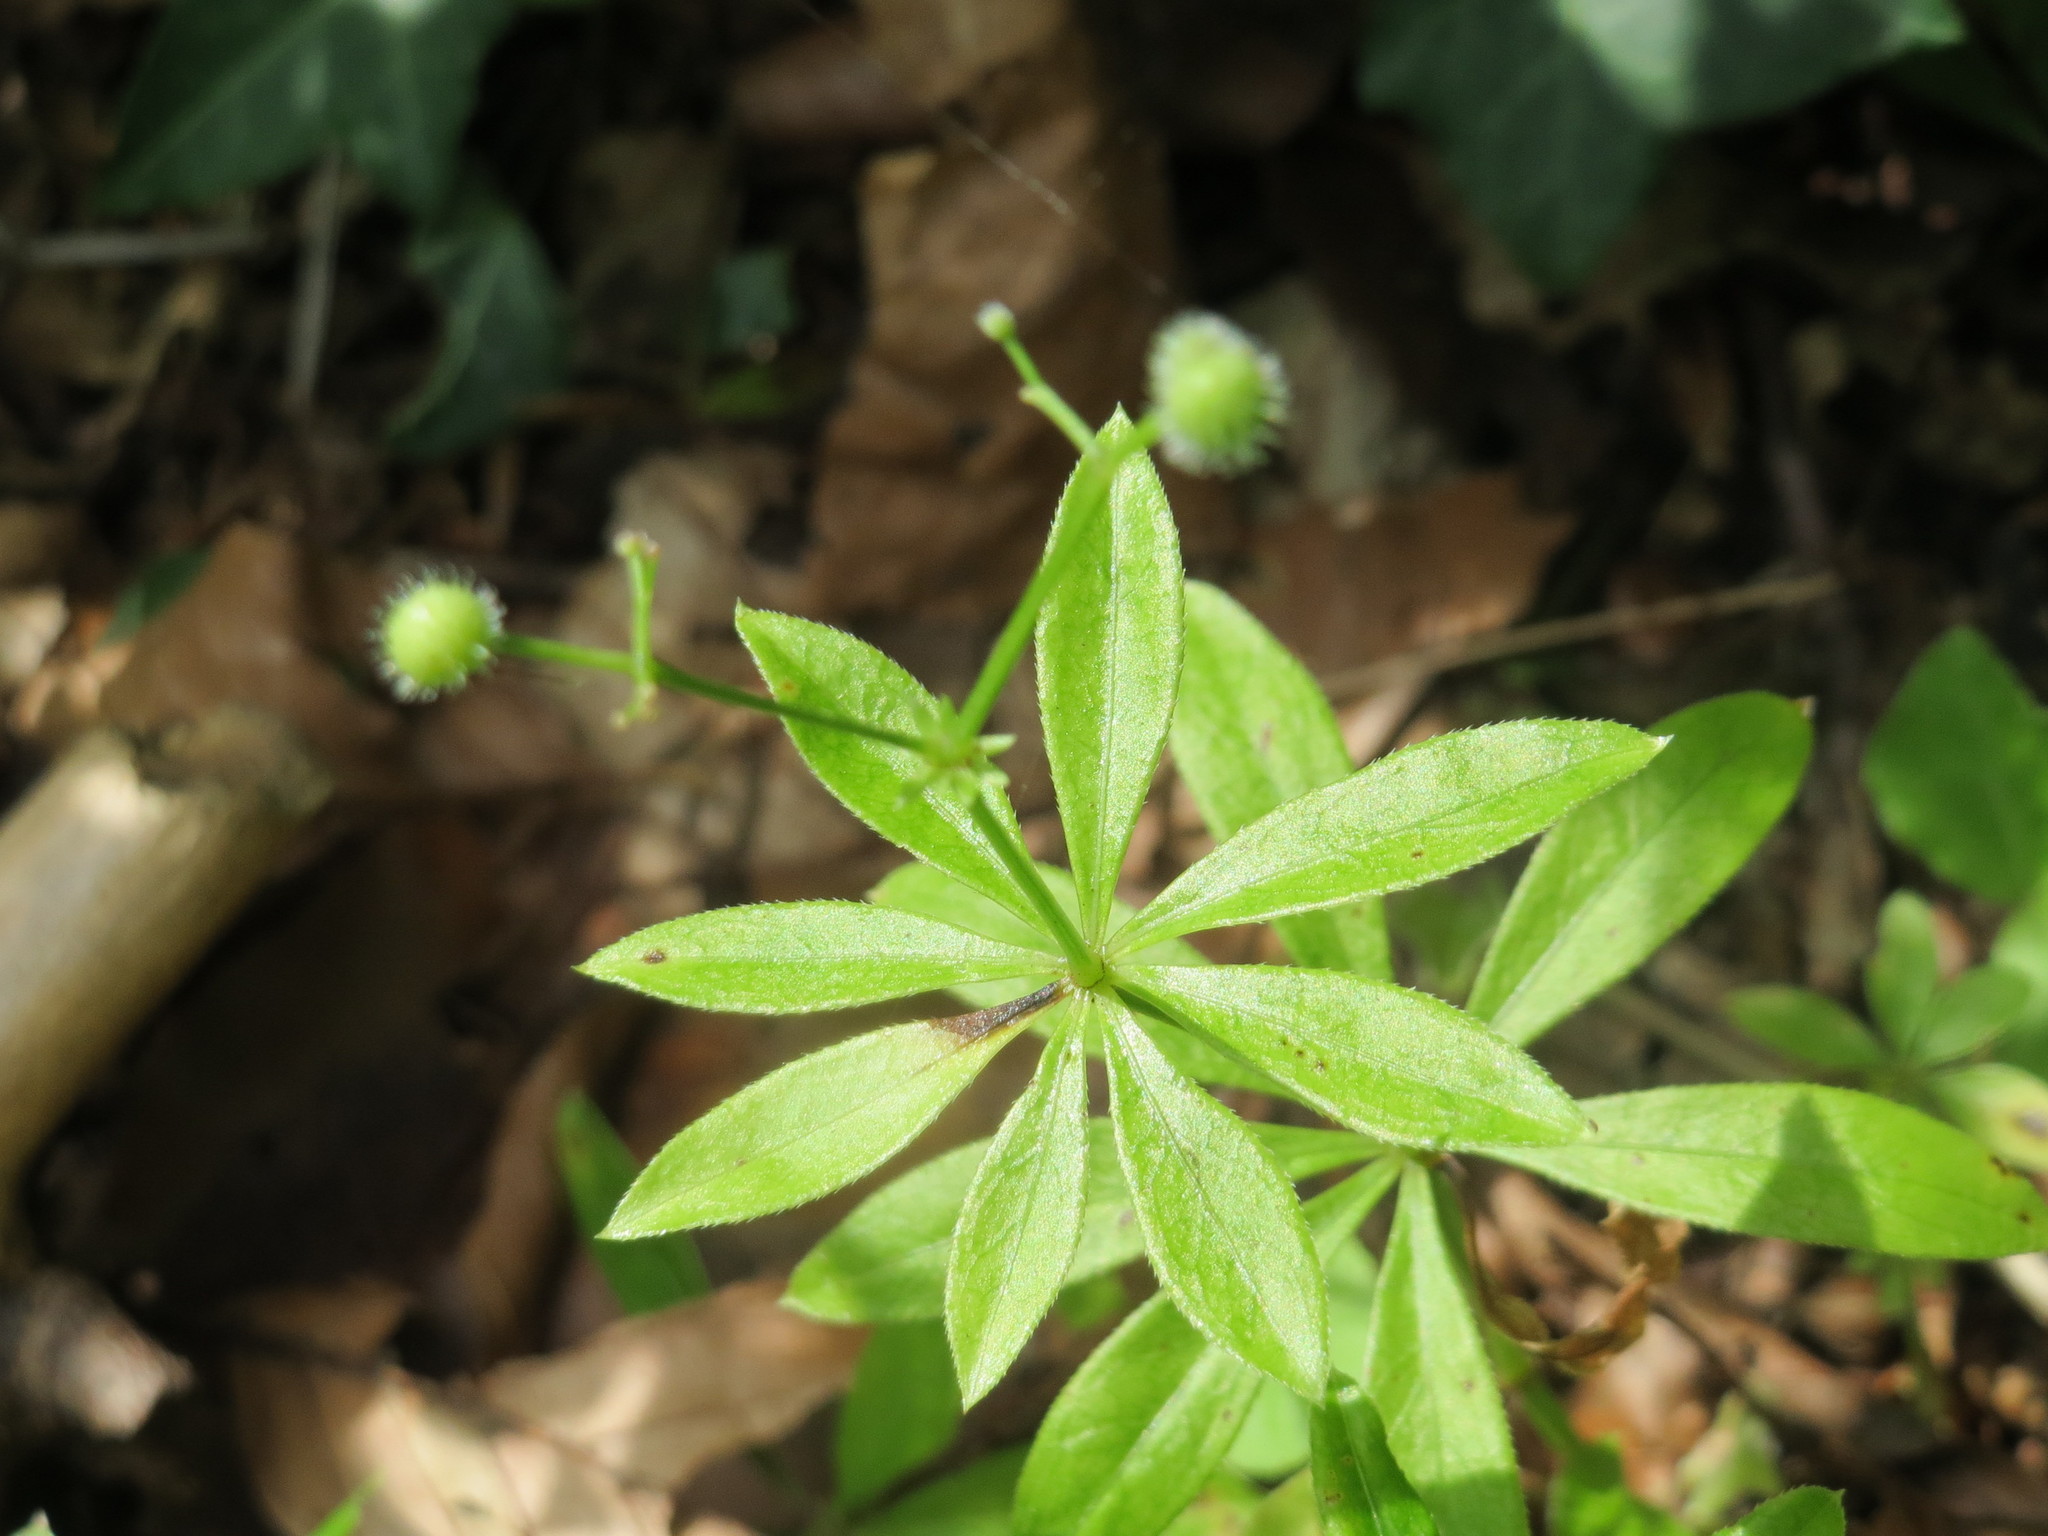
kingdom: Plantae
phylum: Tracheophyta
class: Magnoliopsida
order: Gentianales
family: Rubiaceae
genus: Galium
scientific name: Galium odoratum
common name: Sweet woodruff
